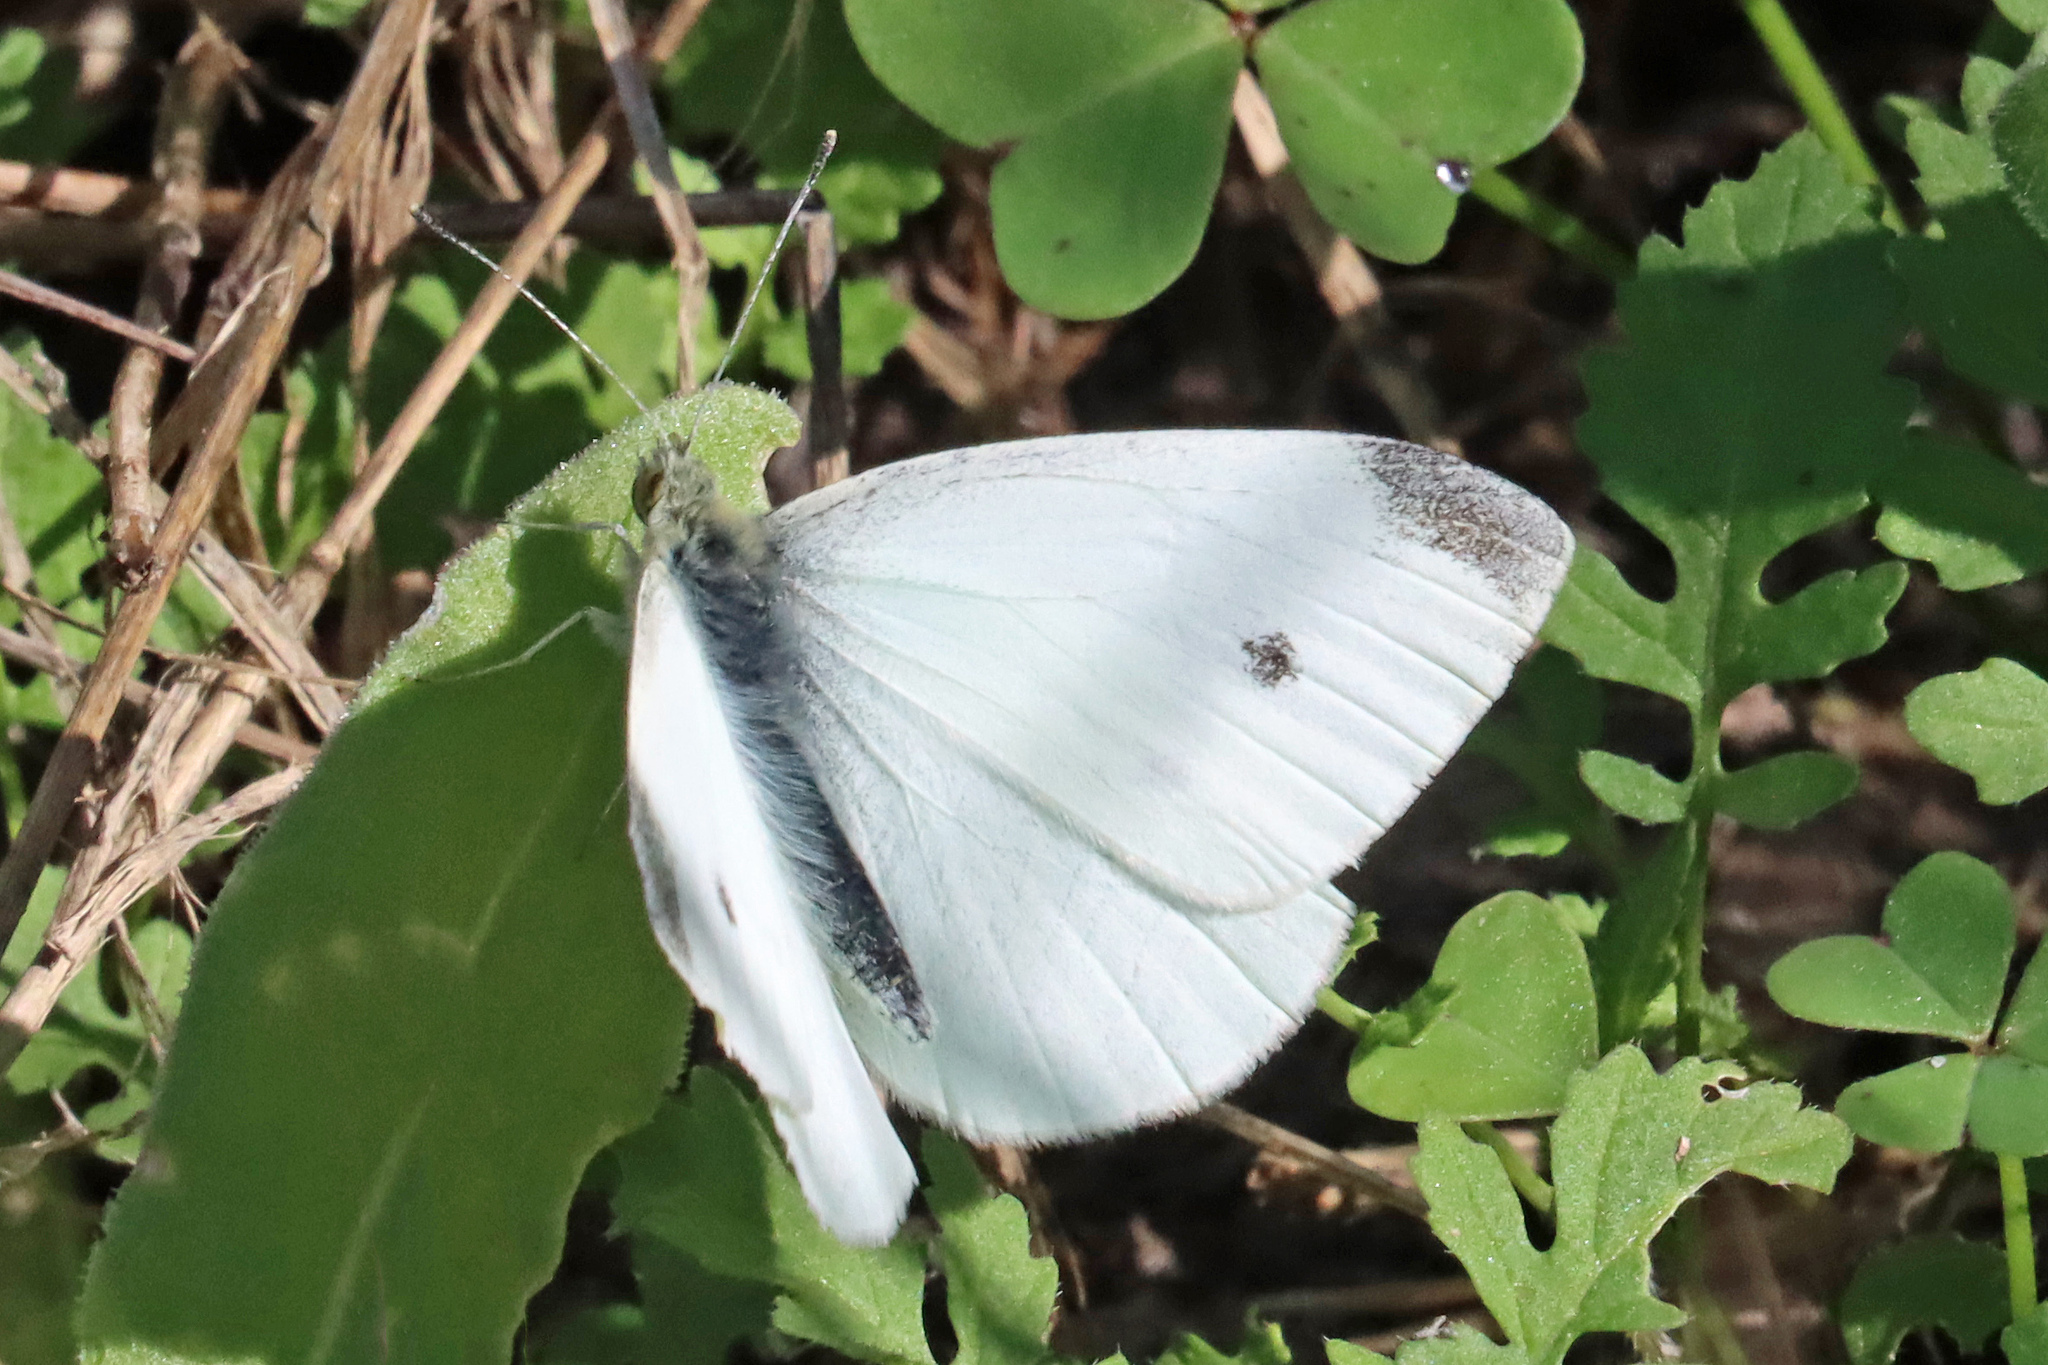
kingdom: Animalia
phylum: Arthropoda
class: Insecta
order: Lepidoptera
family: Pieridae
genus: Pieris
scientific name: Pieris rapae
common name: Small white
